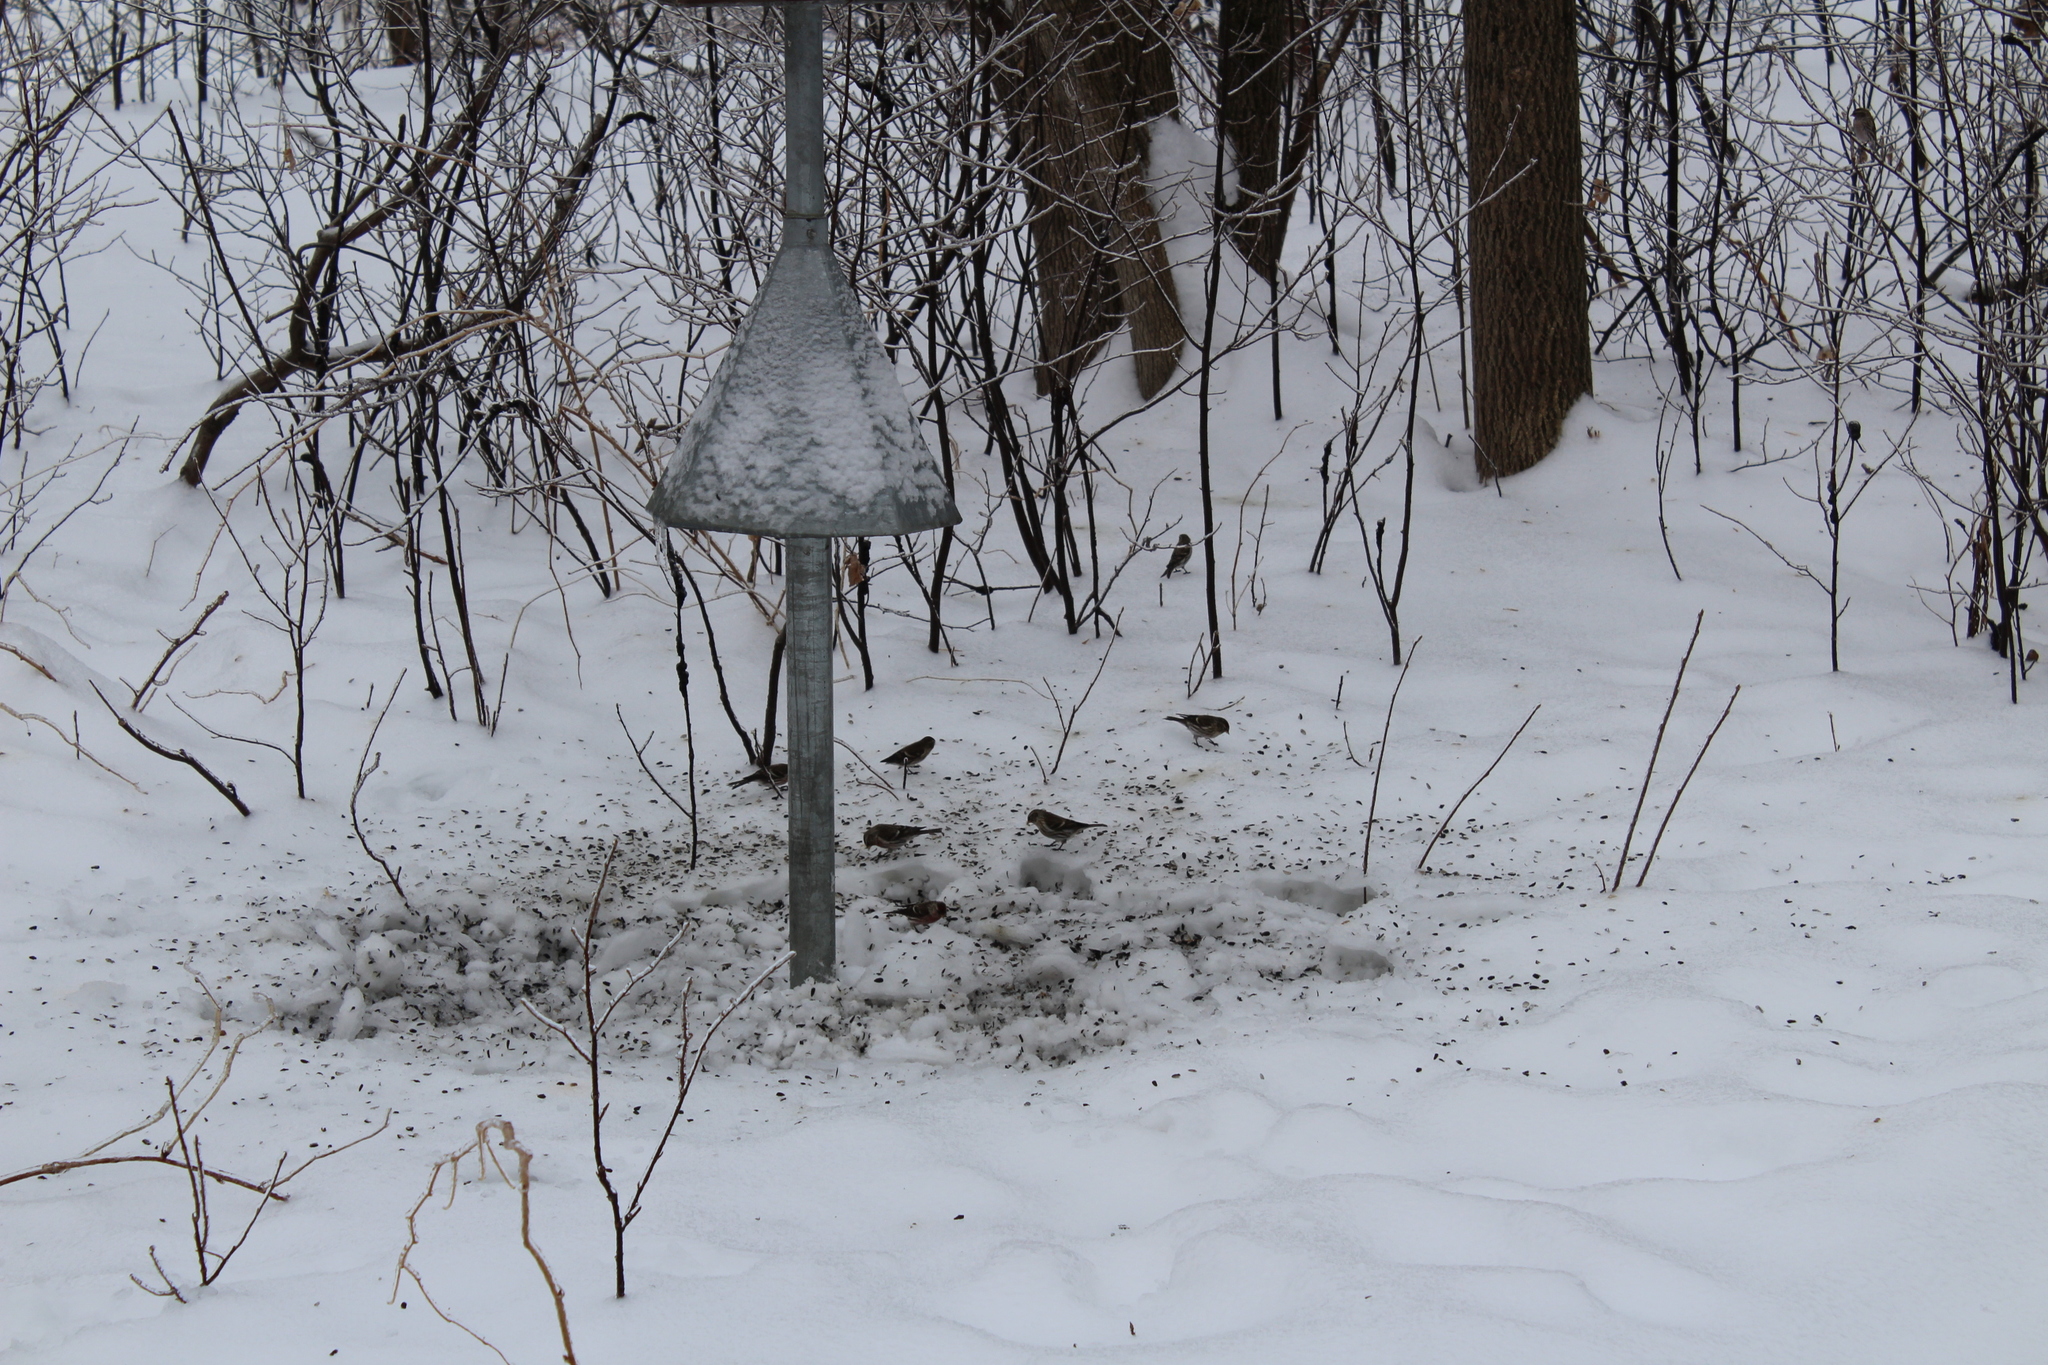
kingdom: Animalia
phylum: Chordata
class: Aves
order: Passeriformes
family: Fringillidae
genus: Acanthis
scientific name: Acanthis flammea
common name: Common redpoll
